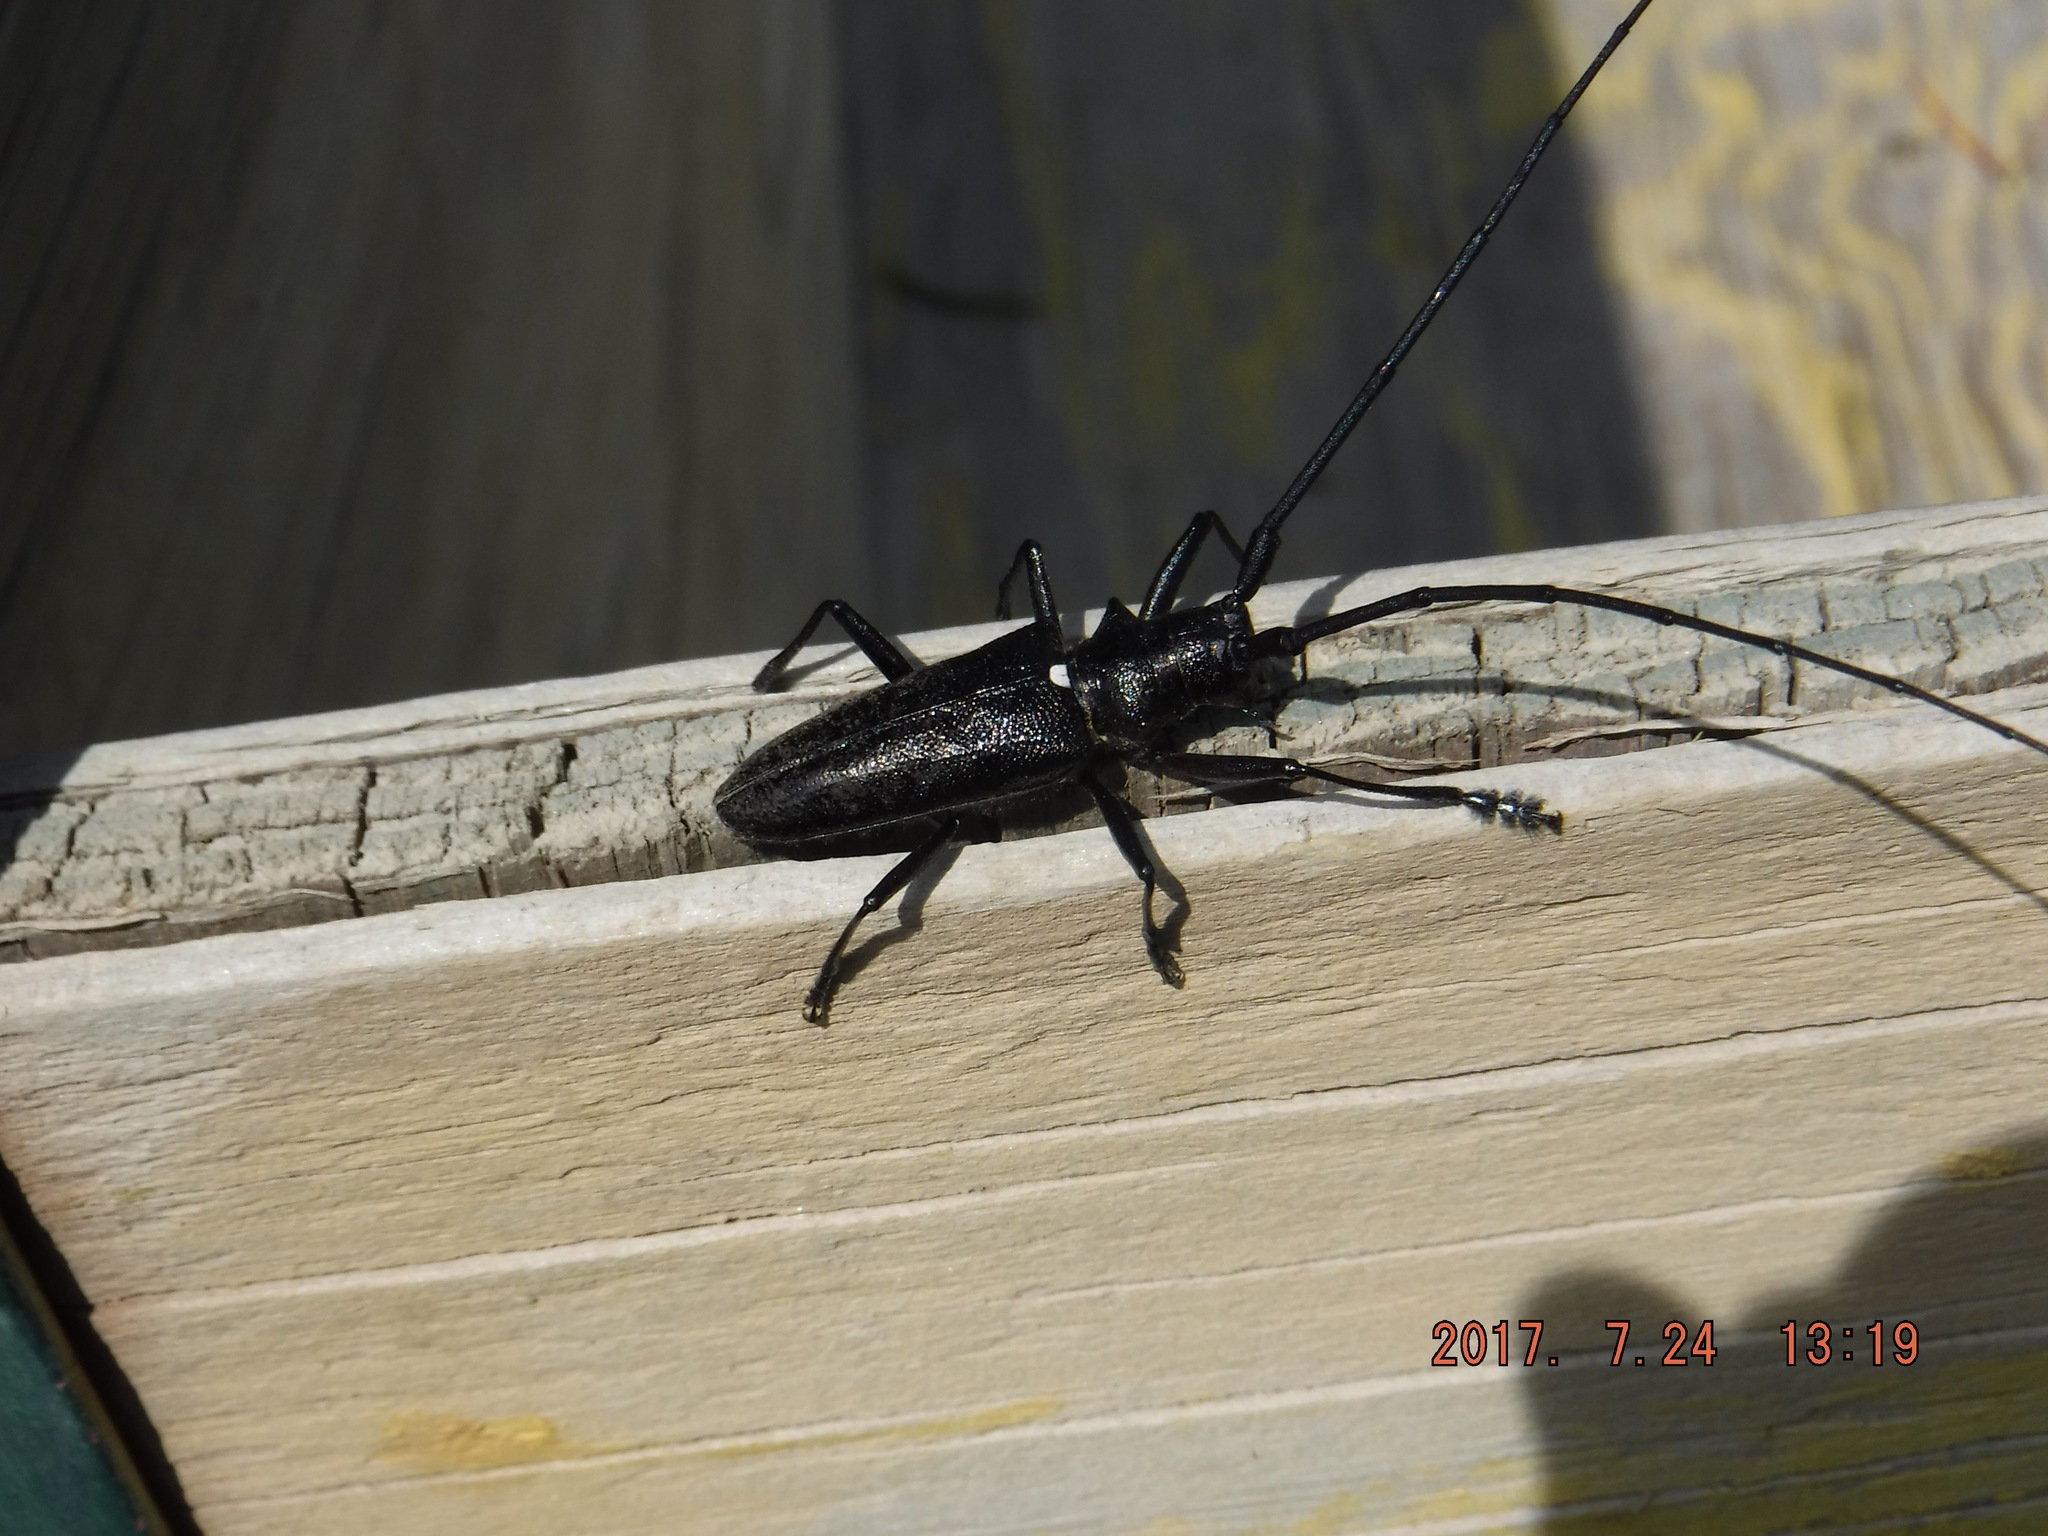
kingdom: Animalia
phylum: Arthropoda
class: Insecta
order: Coleoptera
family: Cerambycidae
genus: Monochamus
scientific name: Monochamus scutellatus
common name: White-spotted sawyer beetle
